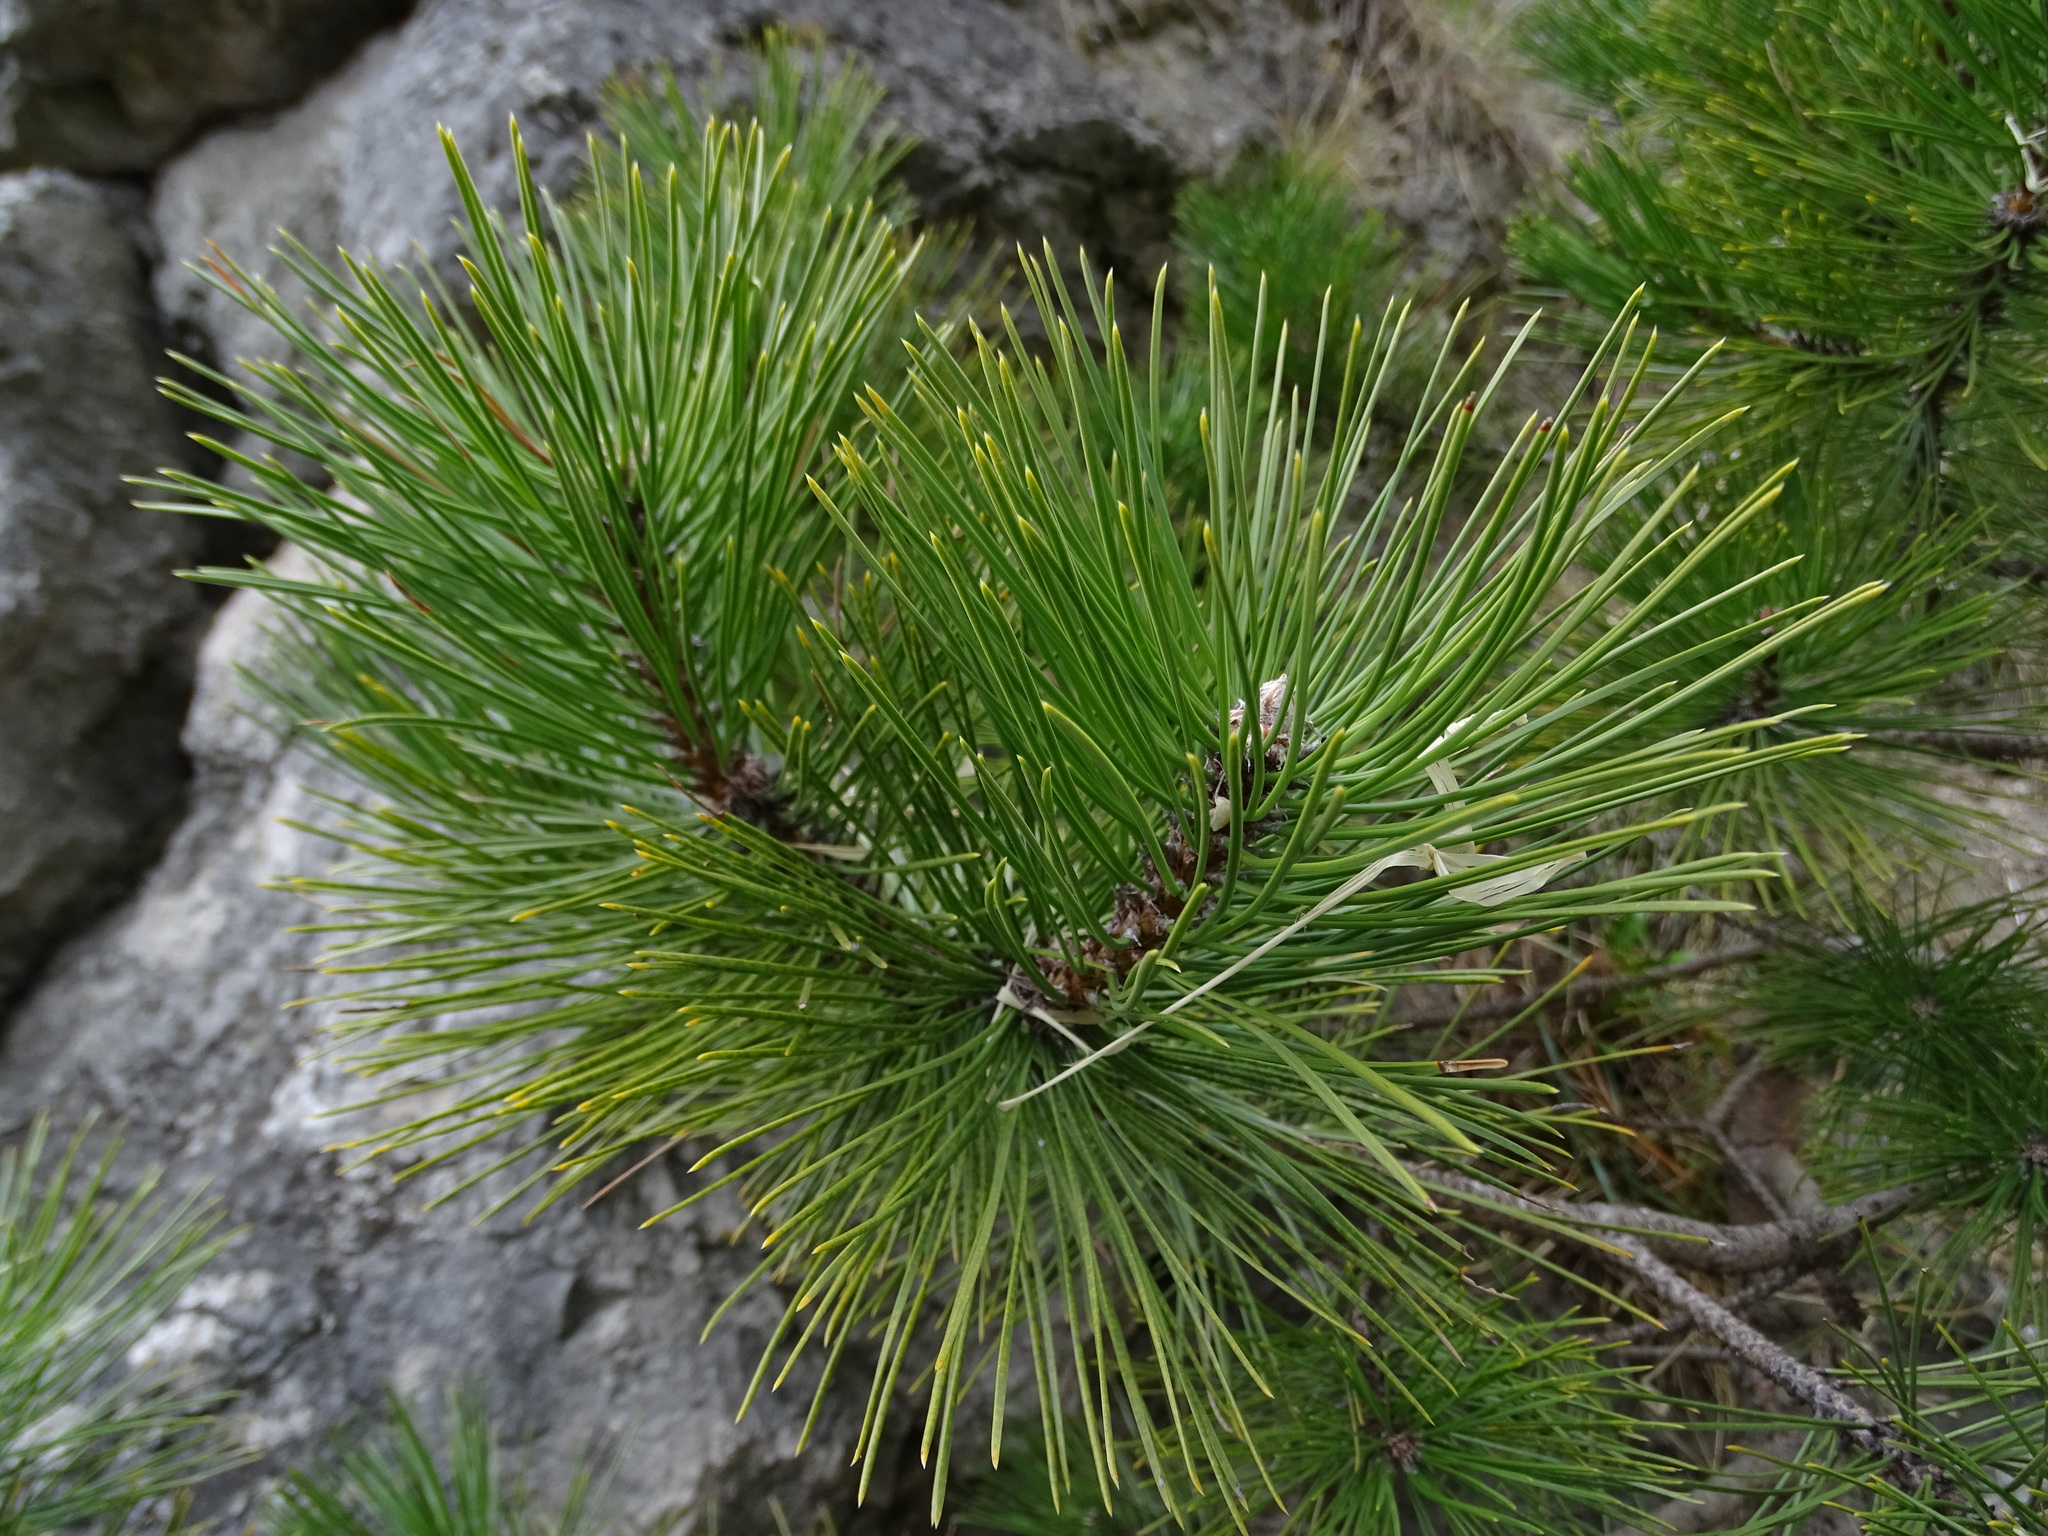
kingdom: Plantae
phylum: Tracheophyta
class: Pinopsida
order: Pinales
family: Pinaceae
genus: Pinus
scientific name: Pinus nigra
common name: Austrian pine
